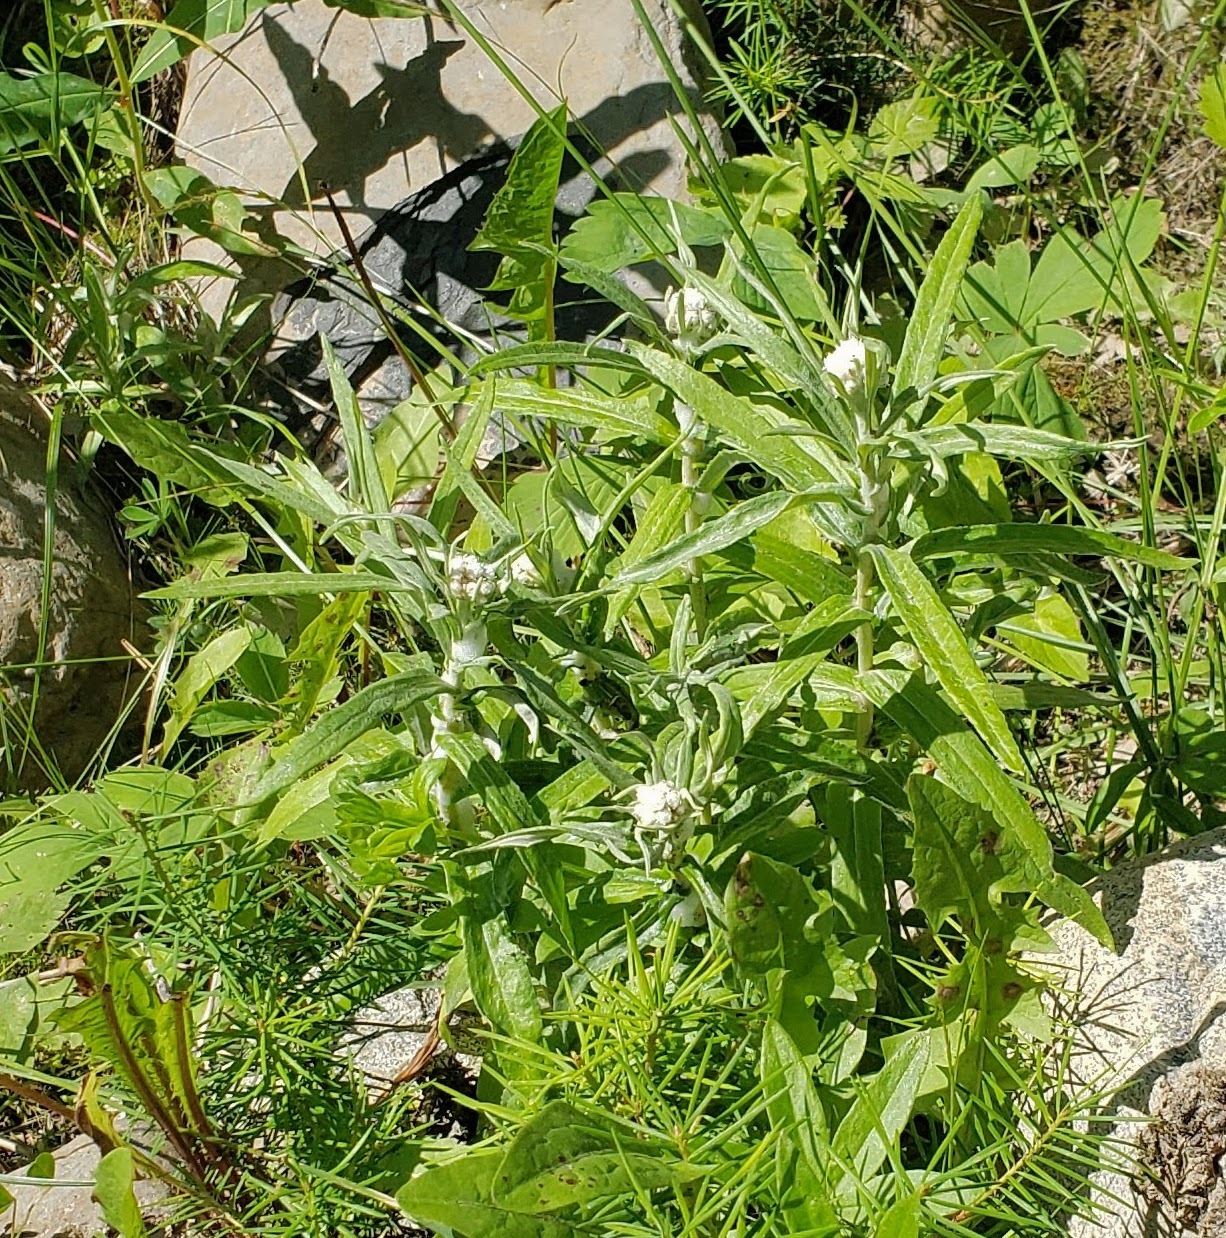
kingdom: Plantae
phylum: Tracheophyta
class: Magnoliopsida
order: Asterales
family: Asteraceae
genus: Anaphalis
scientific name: Anaphalis margaritacea
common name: Pearly everlasting
